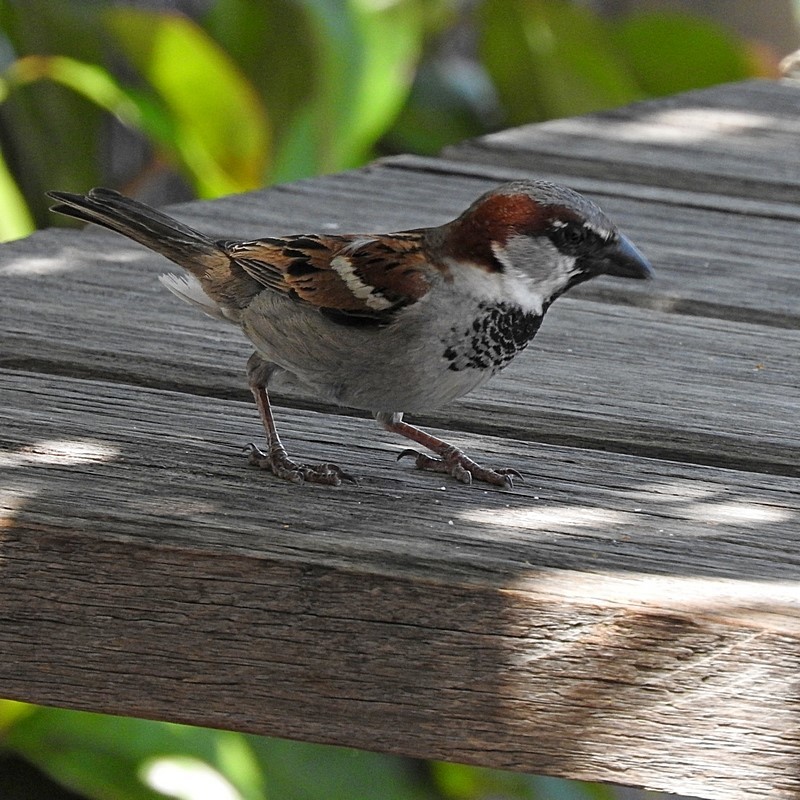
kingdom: Animalia
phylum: Chordata
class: Aves
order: Passeriformes
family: Passeridae
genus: Passer
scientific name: Passer domesticus
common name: House sparrow
